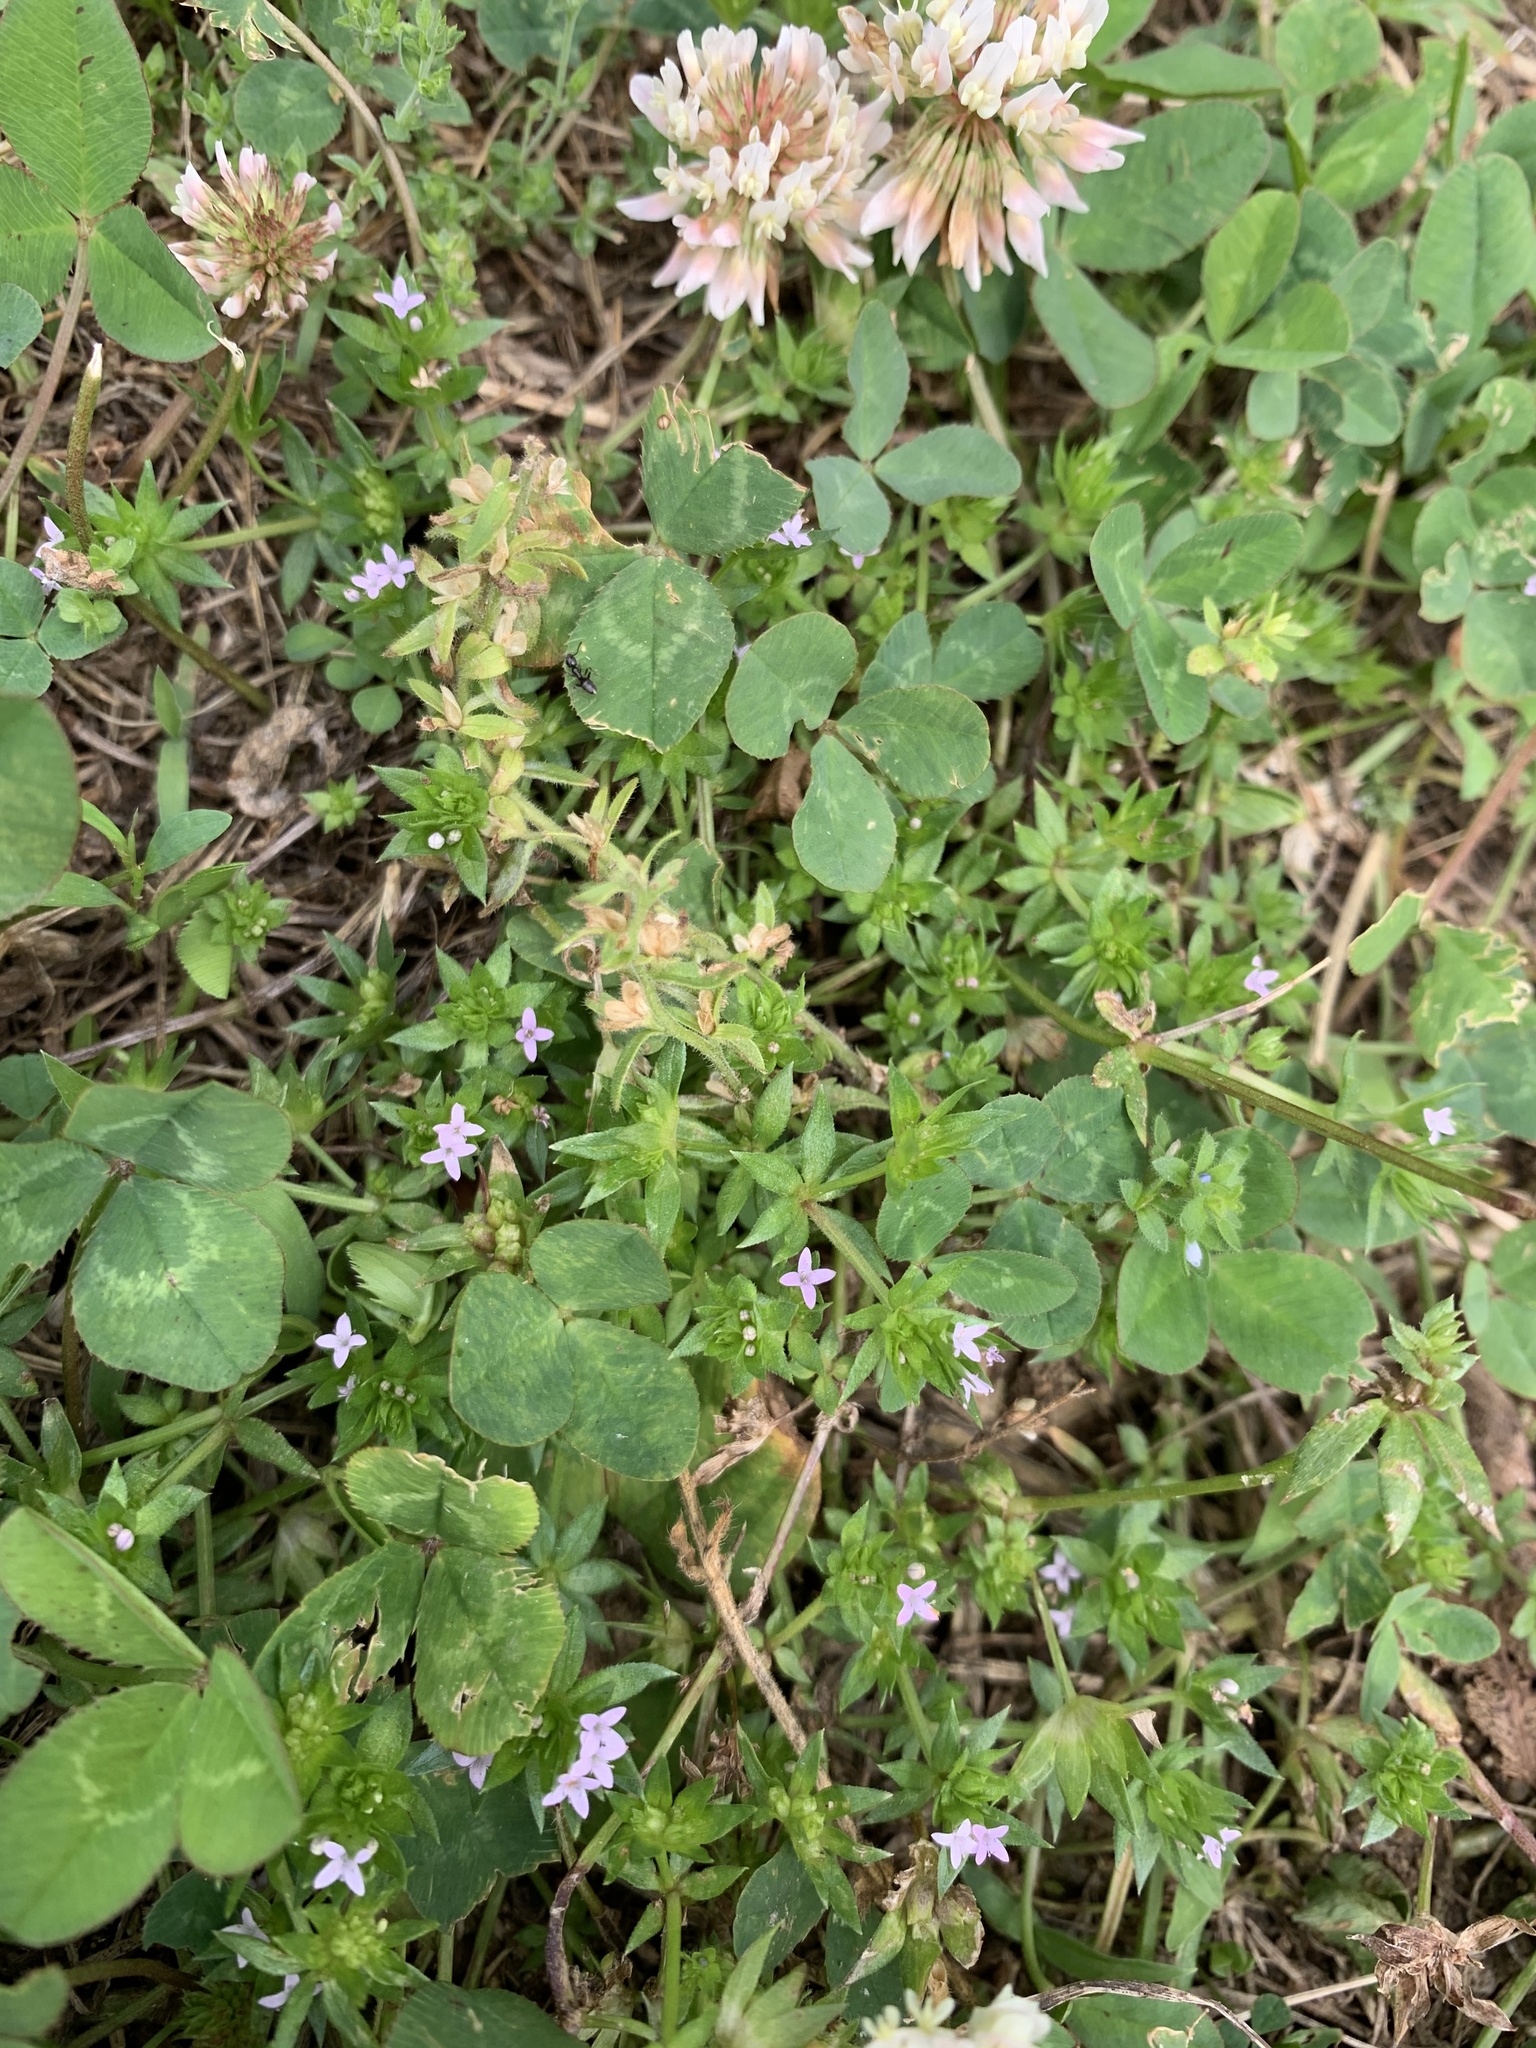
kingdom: Plantae
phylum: Tracheophyta
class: Magnoliopsida
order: Gentianales
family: Rubiaceae
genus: Sherardia
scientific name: Sherardia arvensis
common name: Field madder
